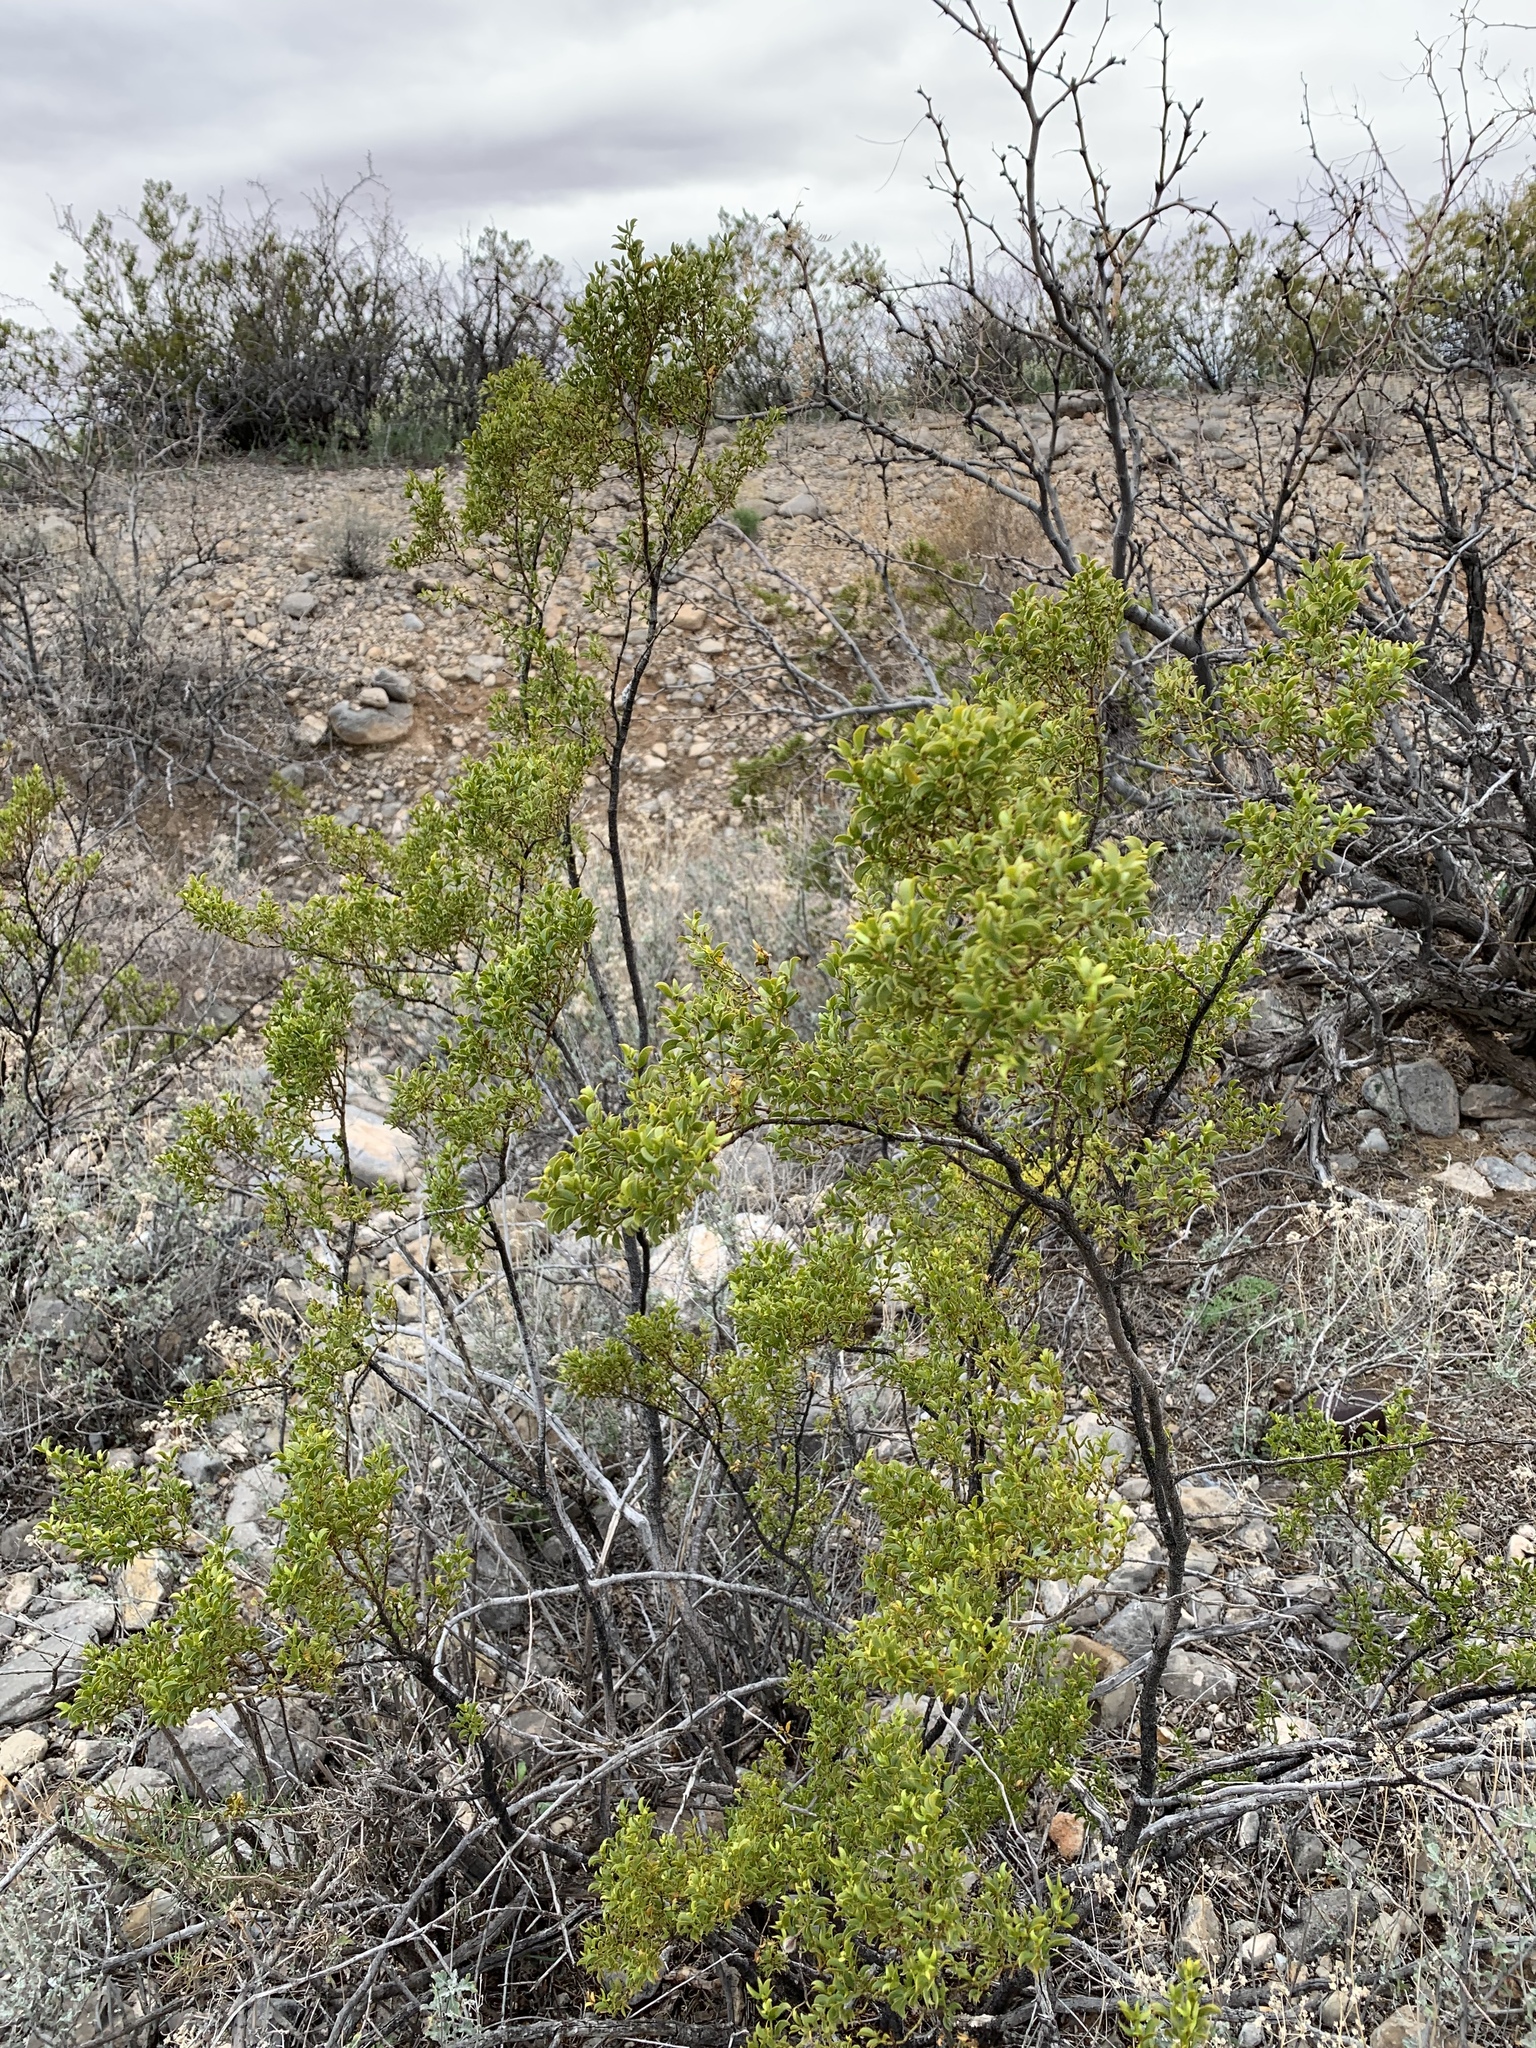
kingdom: Plantae
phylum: Tracheophyta
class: Magnoliopsida
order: Zygophyllales
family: Zygophyllaceae
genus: Larrea
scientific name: Larrea tridentata
